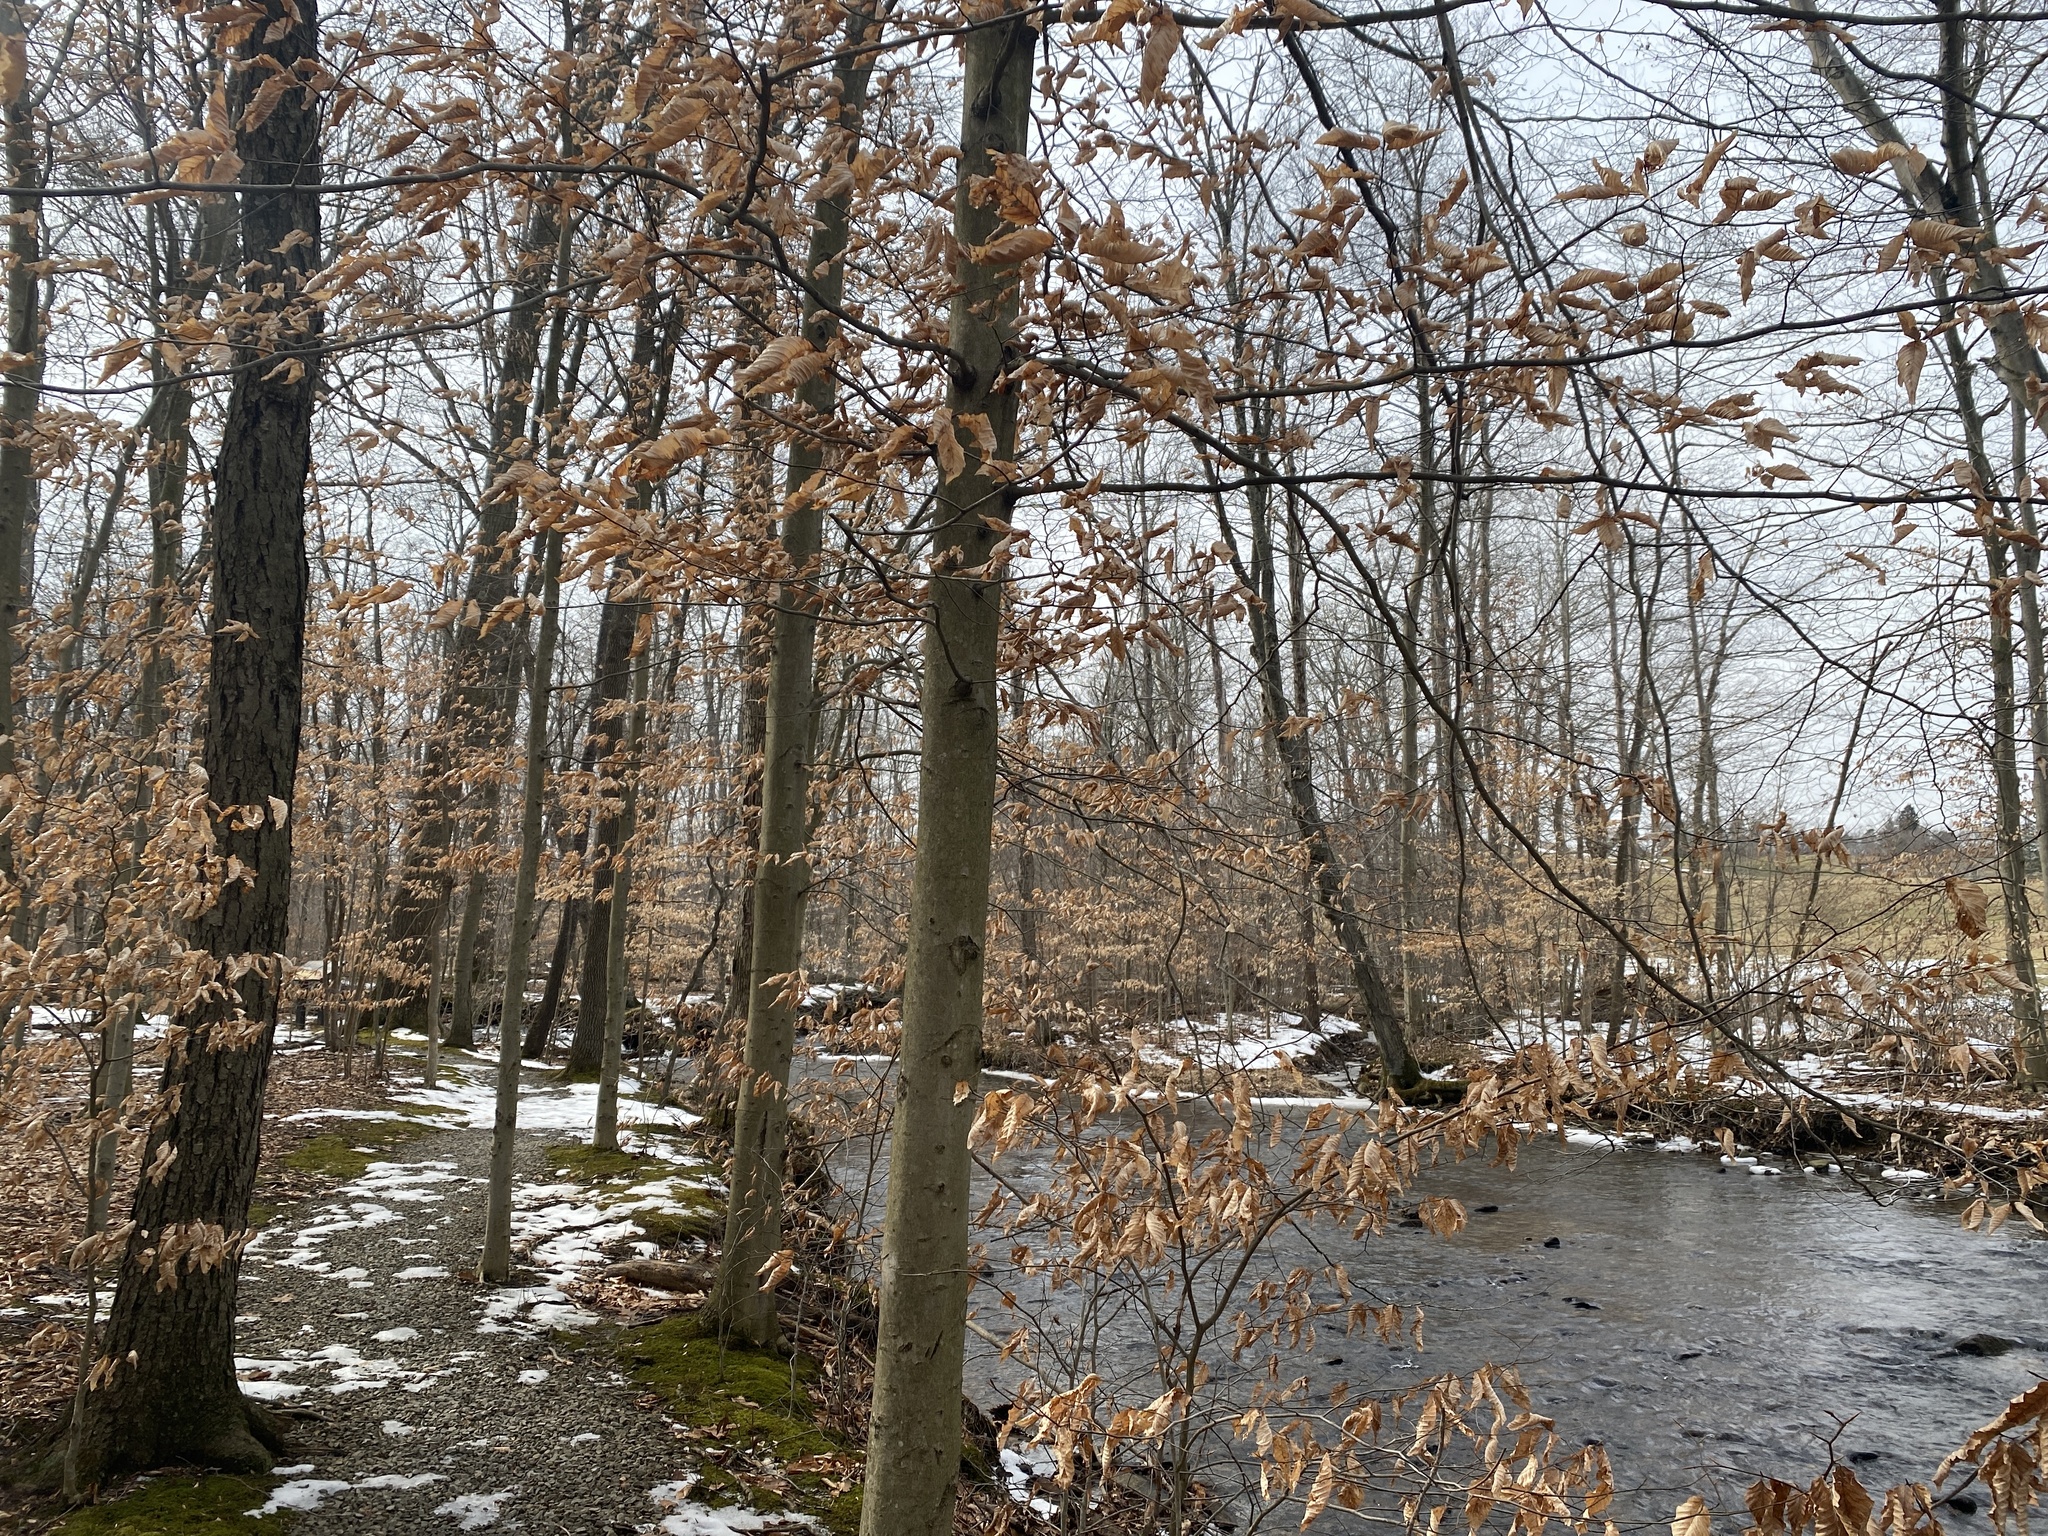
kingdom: Plantae
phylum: Tracheophyta
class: Magnoliopsida
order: Fagales
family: Fagaceae
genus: Fagus
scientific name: Fagus grandifolia
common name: American beech
